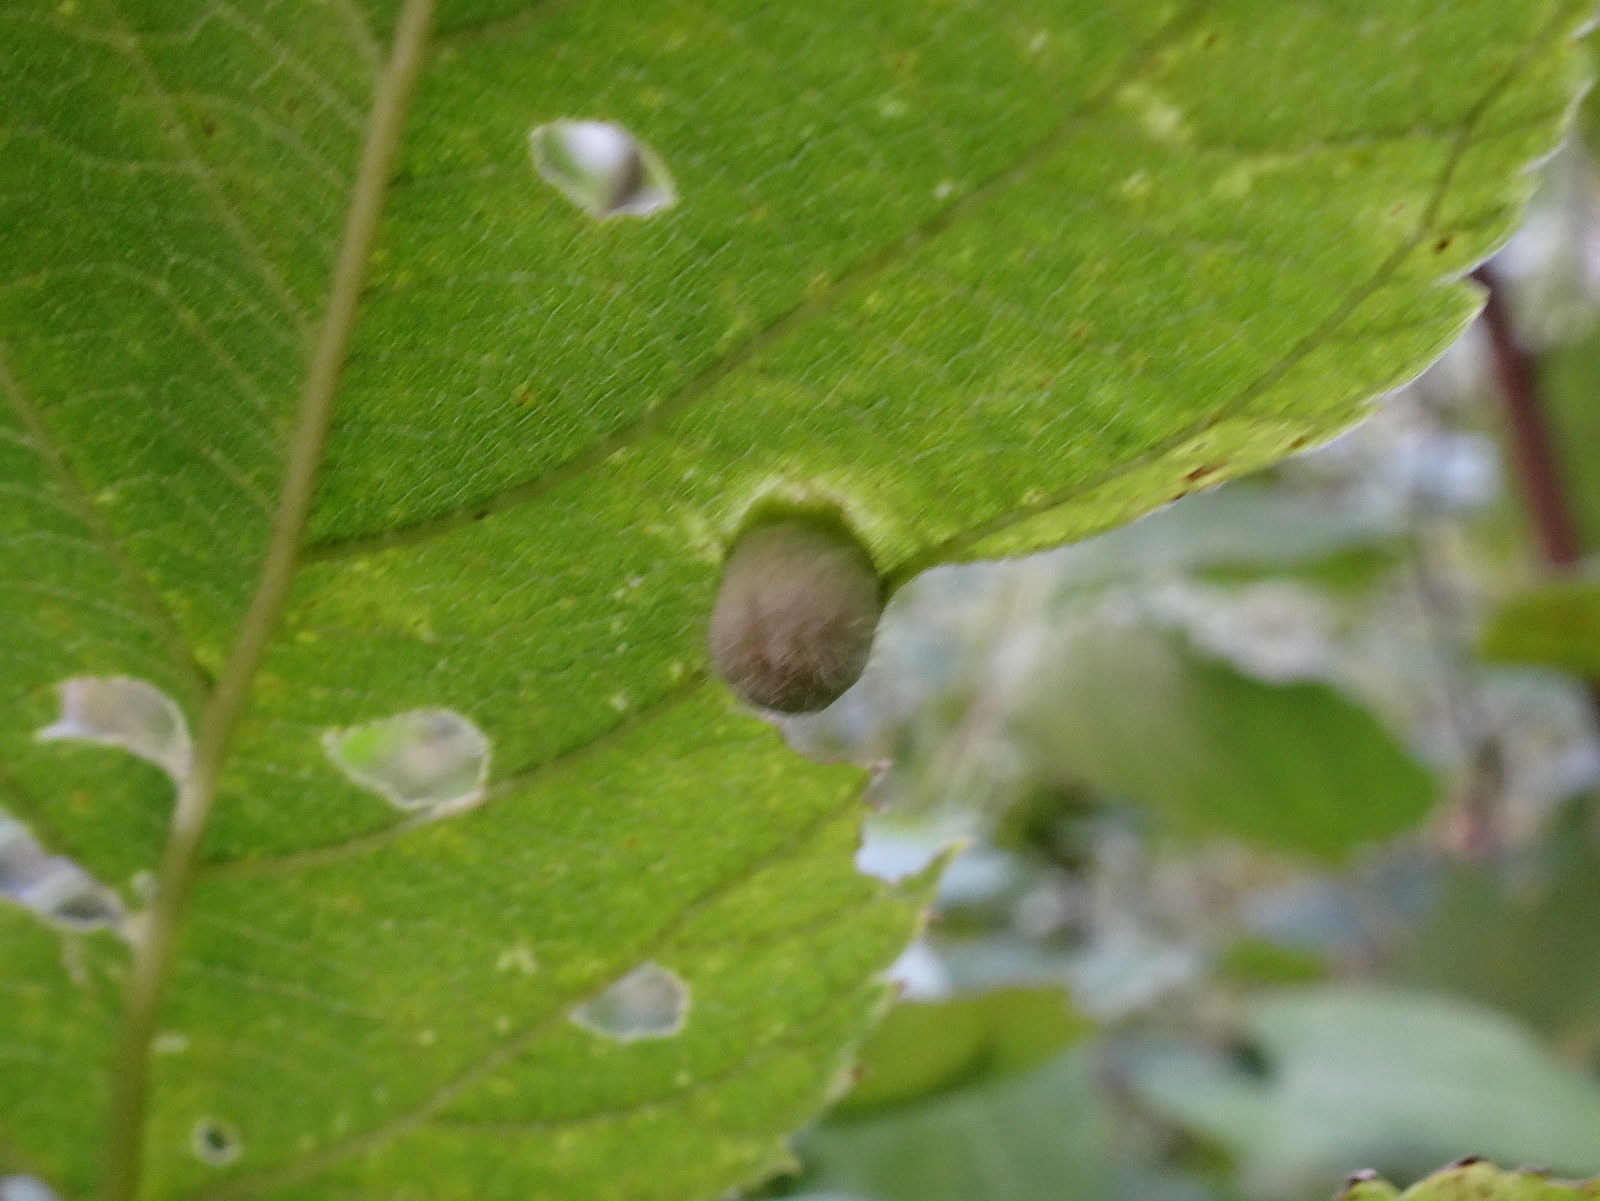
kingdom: Animalia
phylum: Arthropoda
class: Insecta
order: Hemiptera
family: Aphalaridae
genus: Pachypsylla
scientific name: Pachypsylla celtidismamma
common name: Hackberry nipplegall psyllid
